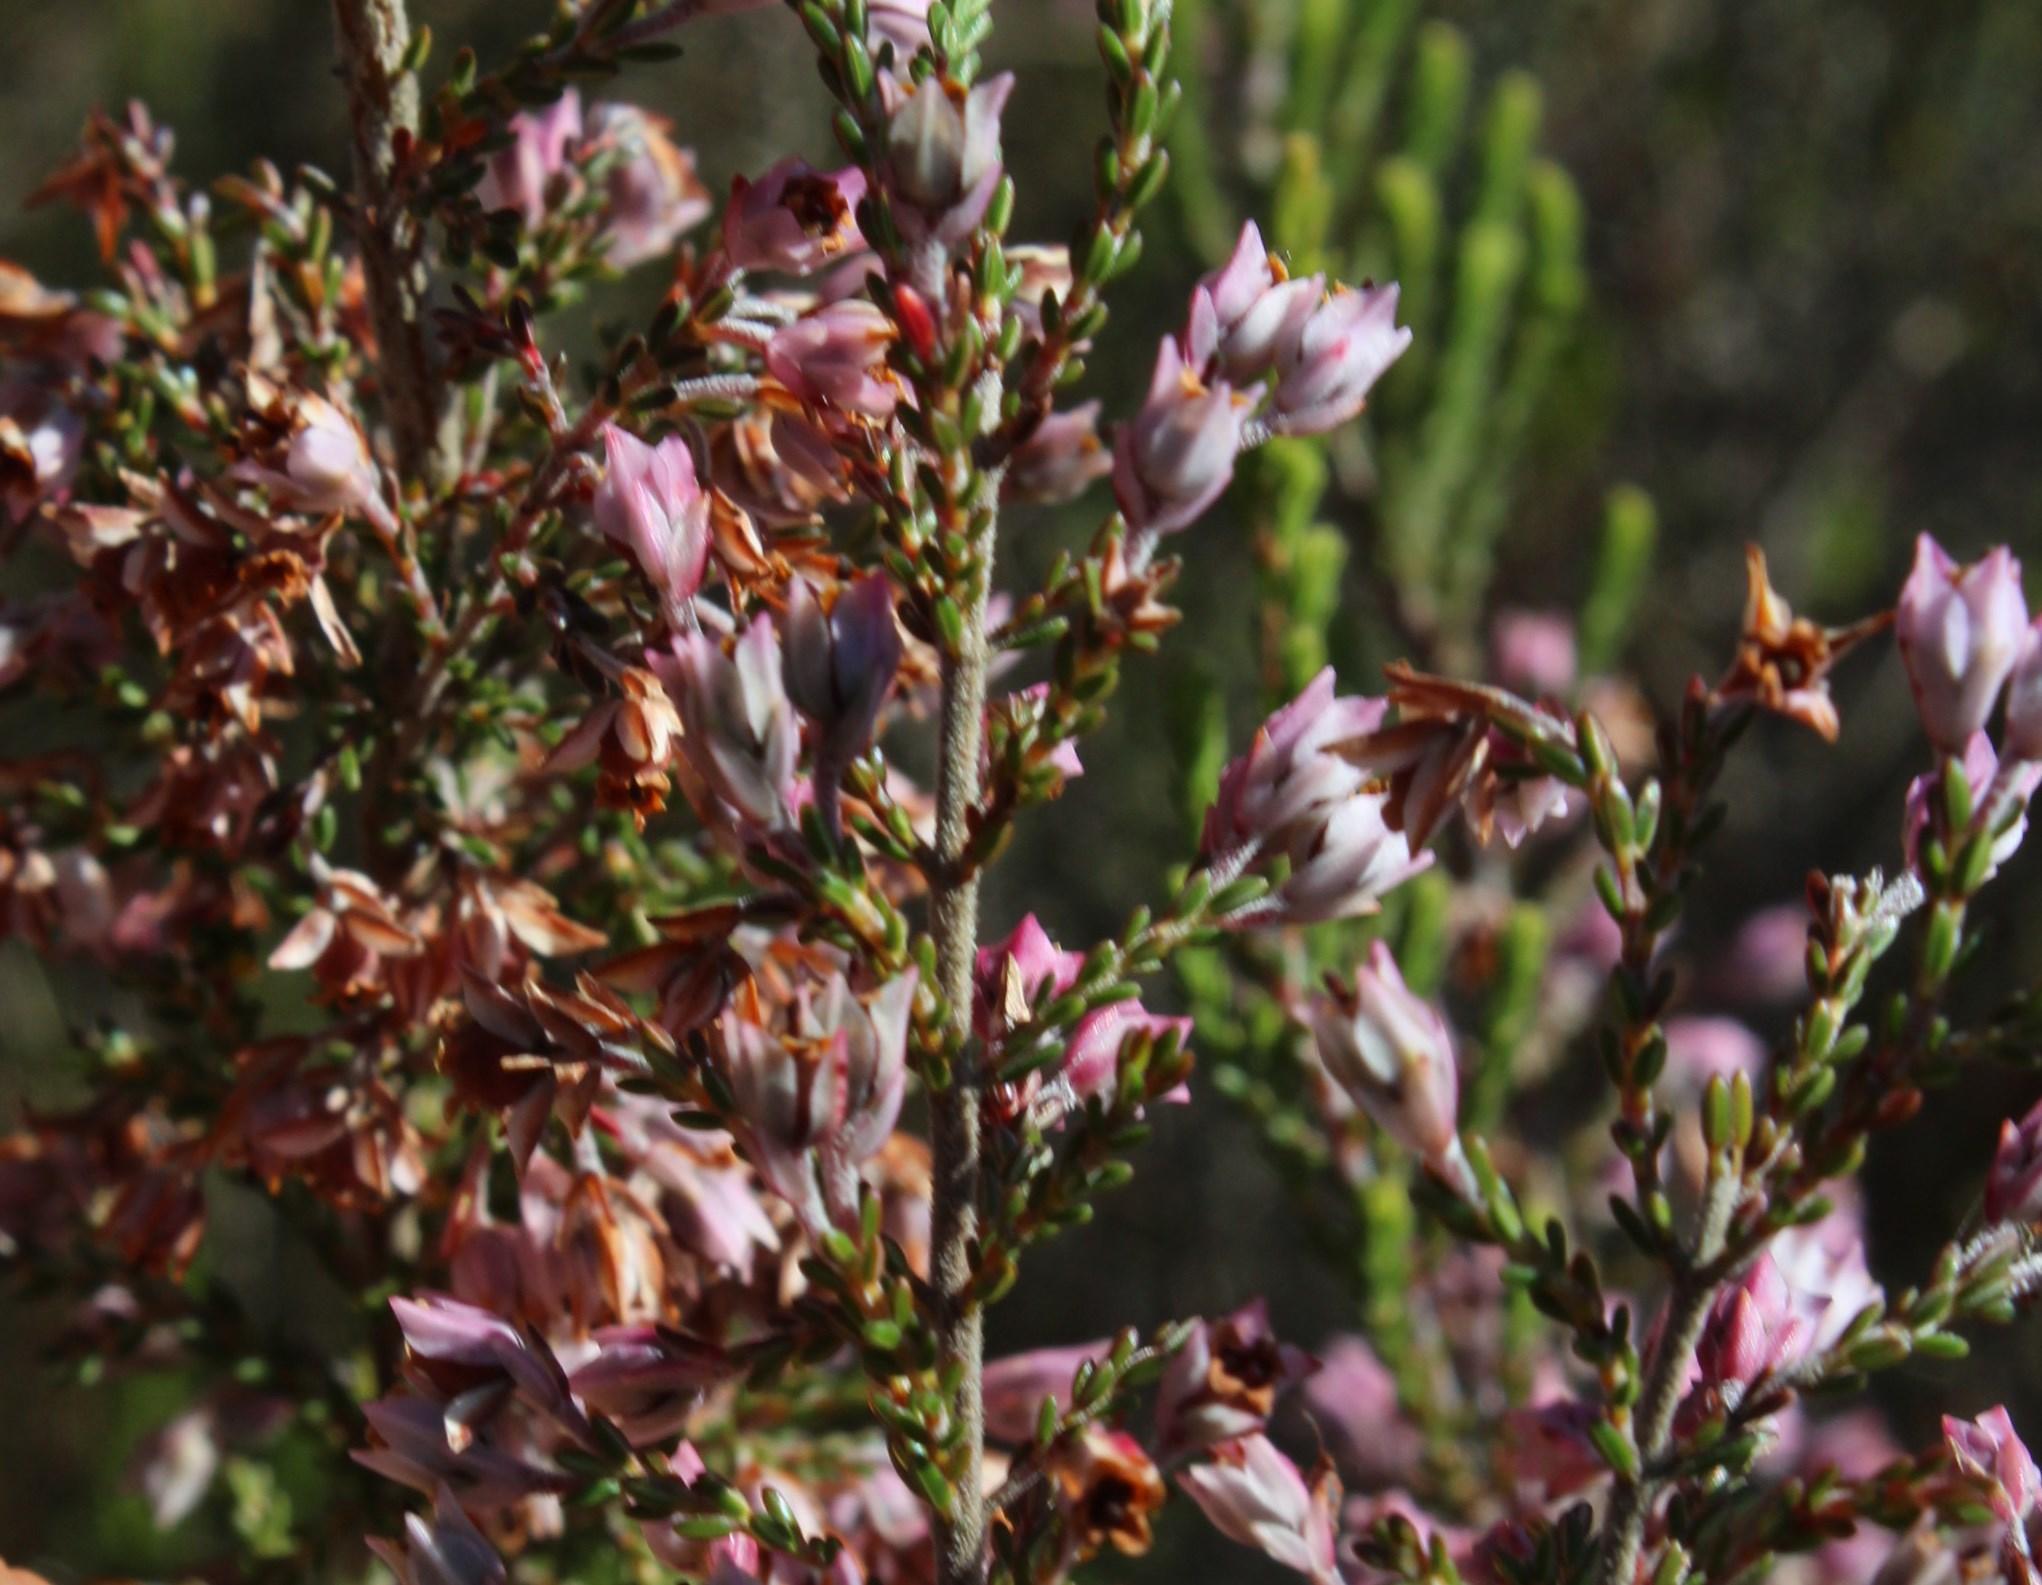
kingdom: Plantae
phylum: Tracheophyta
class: Magnoliopsida
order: Ericales
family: Ericaceae
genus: Erica
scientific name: Erica plumigera
